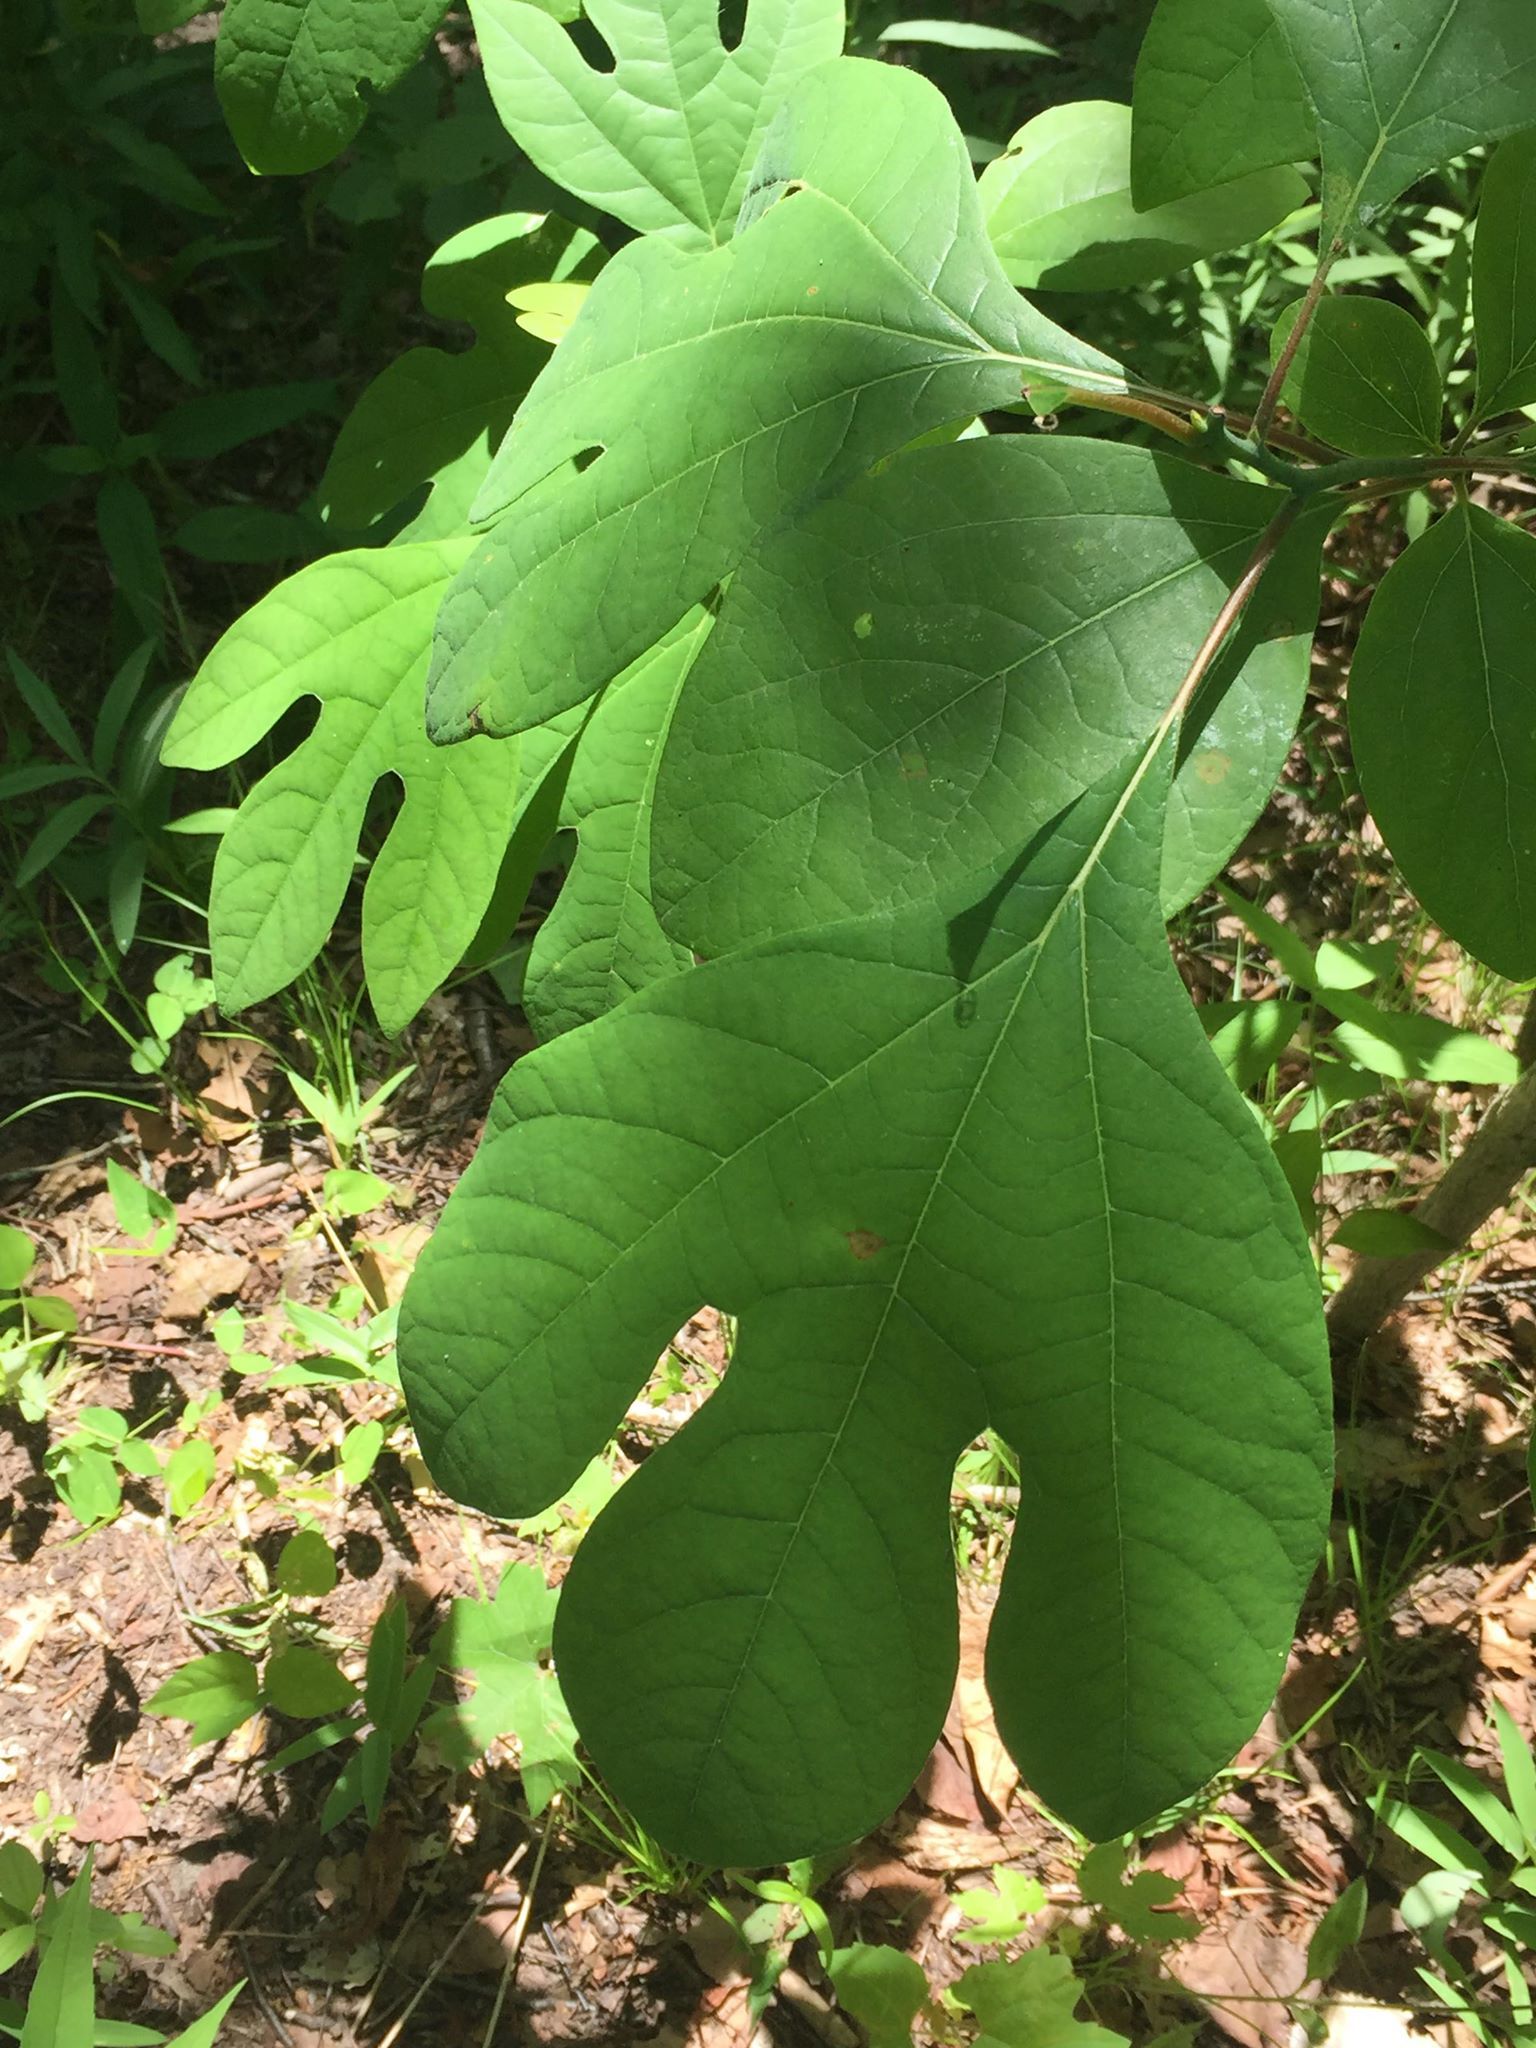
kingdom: Plantae
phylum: Tracheophyta
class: Magnoliopsida
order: Laurales
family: Lauraceae
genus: Sassafras
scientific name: Sassafras albidum
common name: Sassafras
